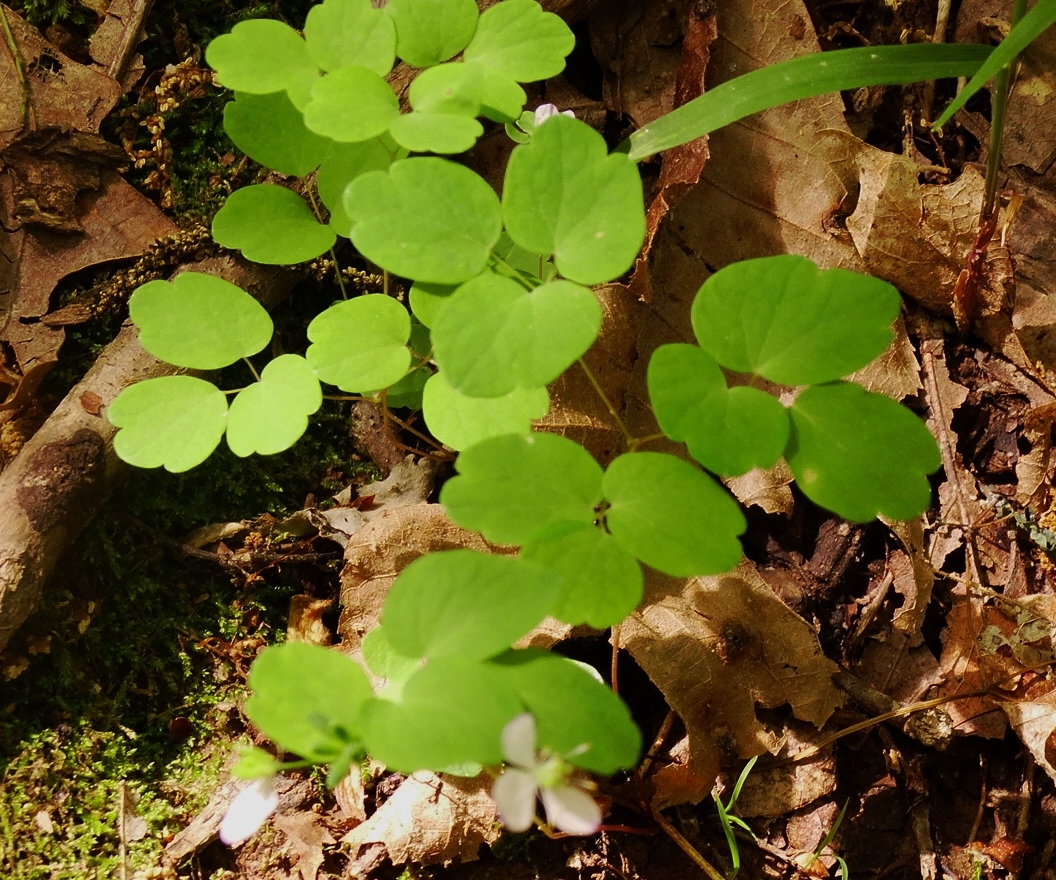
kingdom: Plantae
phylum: Tracheophyta
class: Magnoliopsida
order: Ranunculales
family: Ranunculaceae
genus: Thalictrum
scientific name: Thalictrum thalictroides
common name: Rue-anemone
